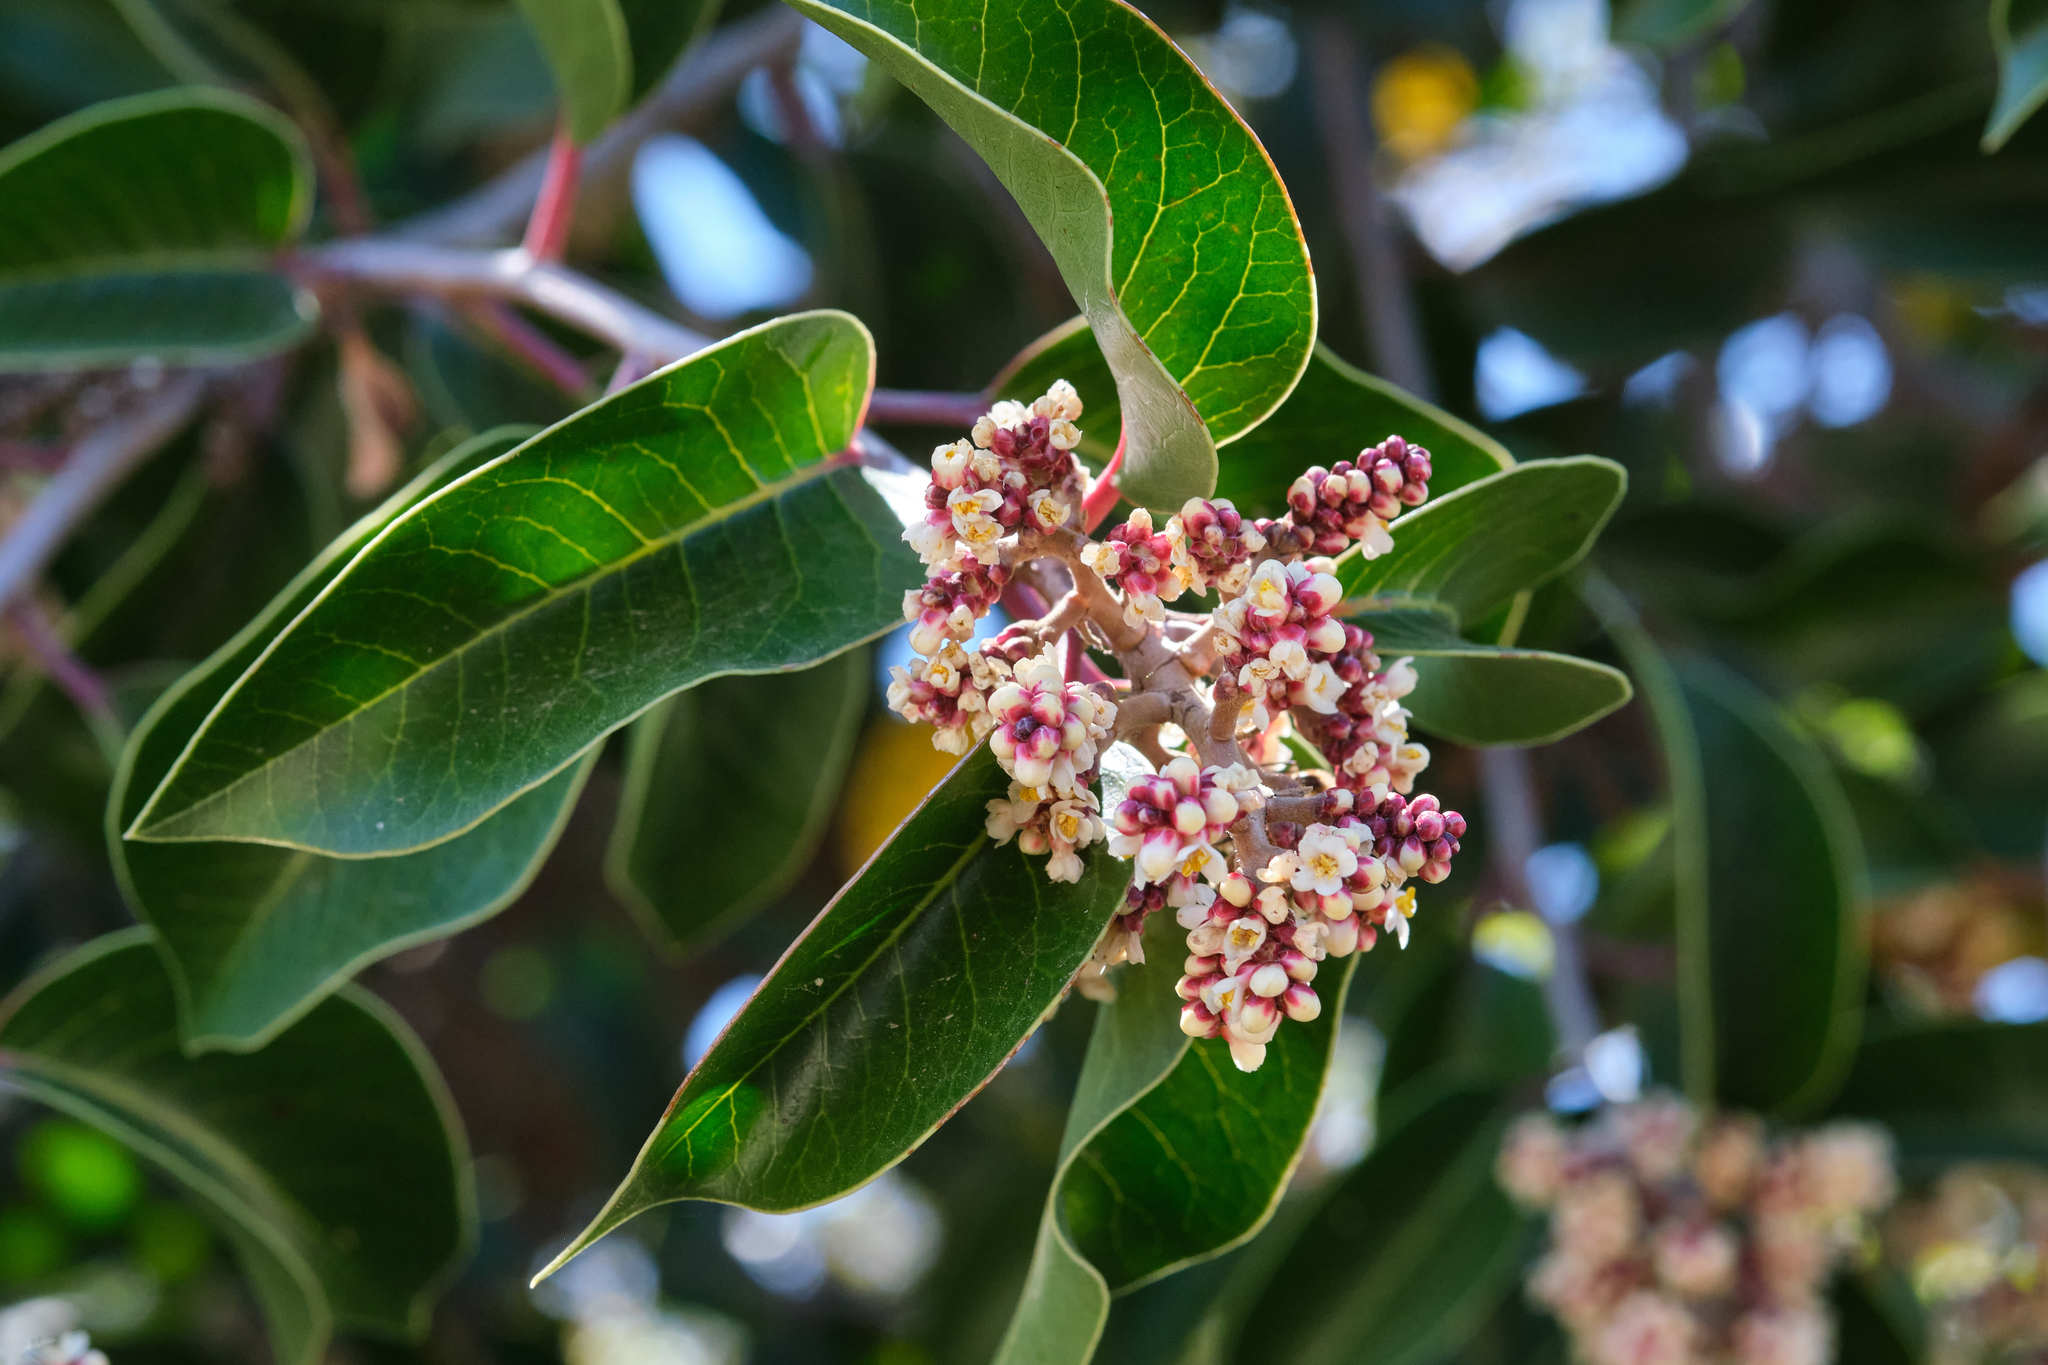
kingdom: Plantae
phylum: Tracheophyta
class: Magnoliopsida
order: Sapindales
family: Anacardiaceae
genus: Rhus
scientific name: Rhus ovata
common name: Sugar sumac
